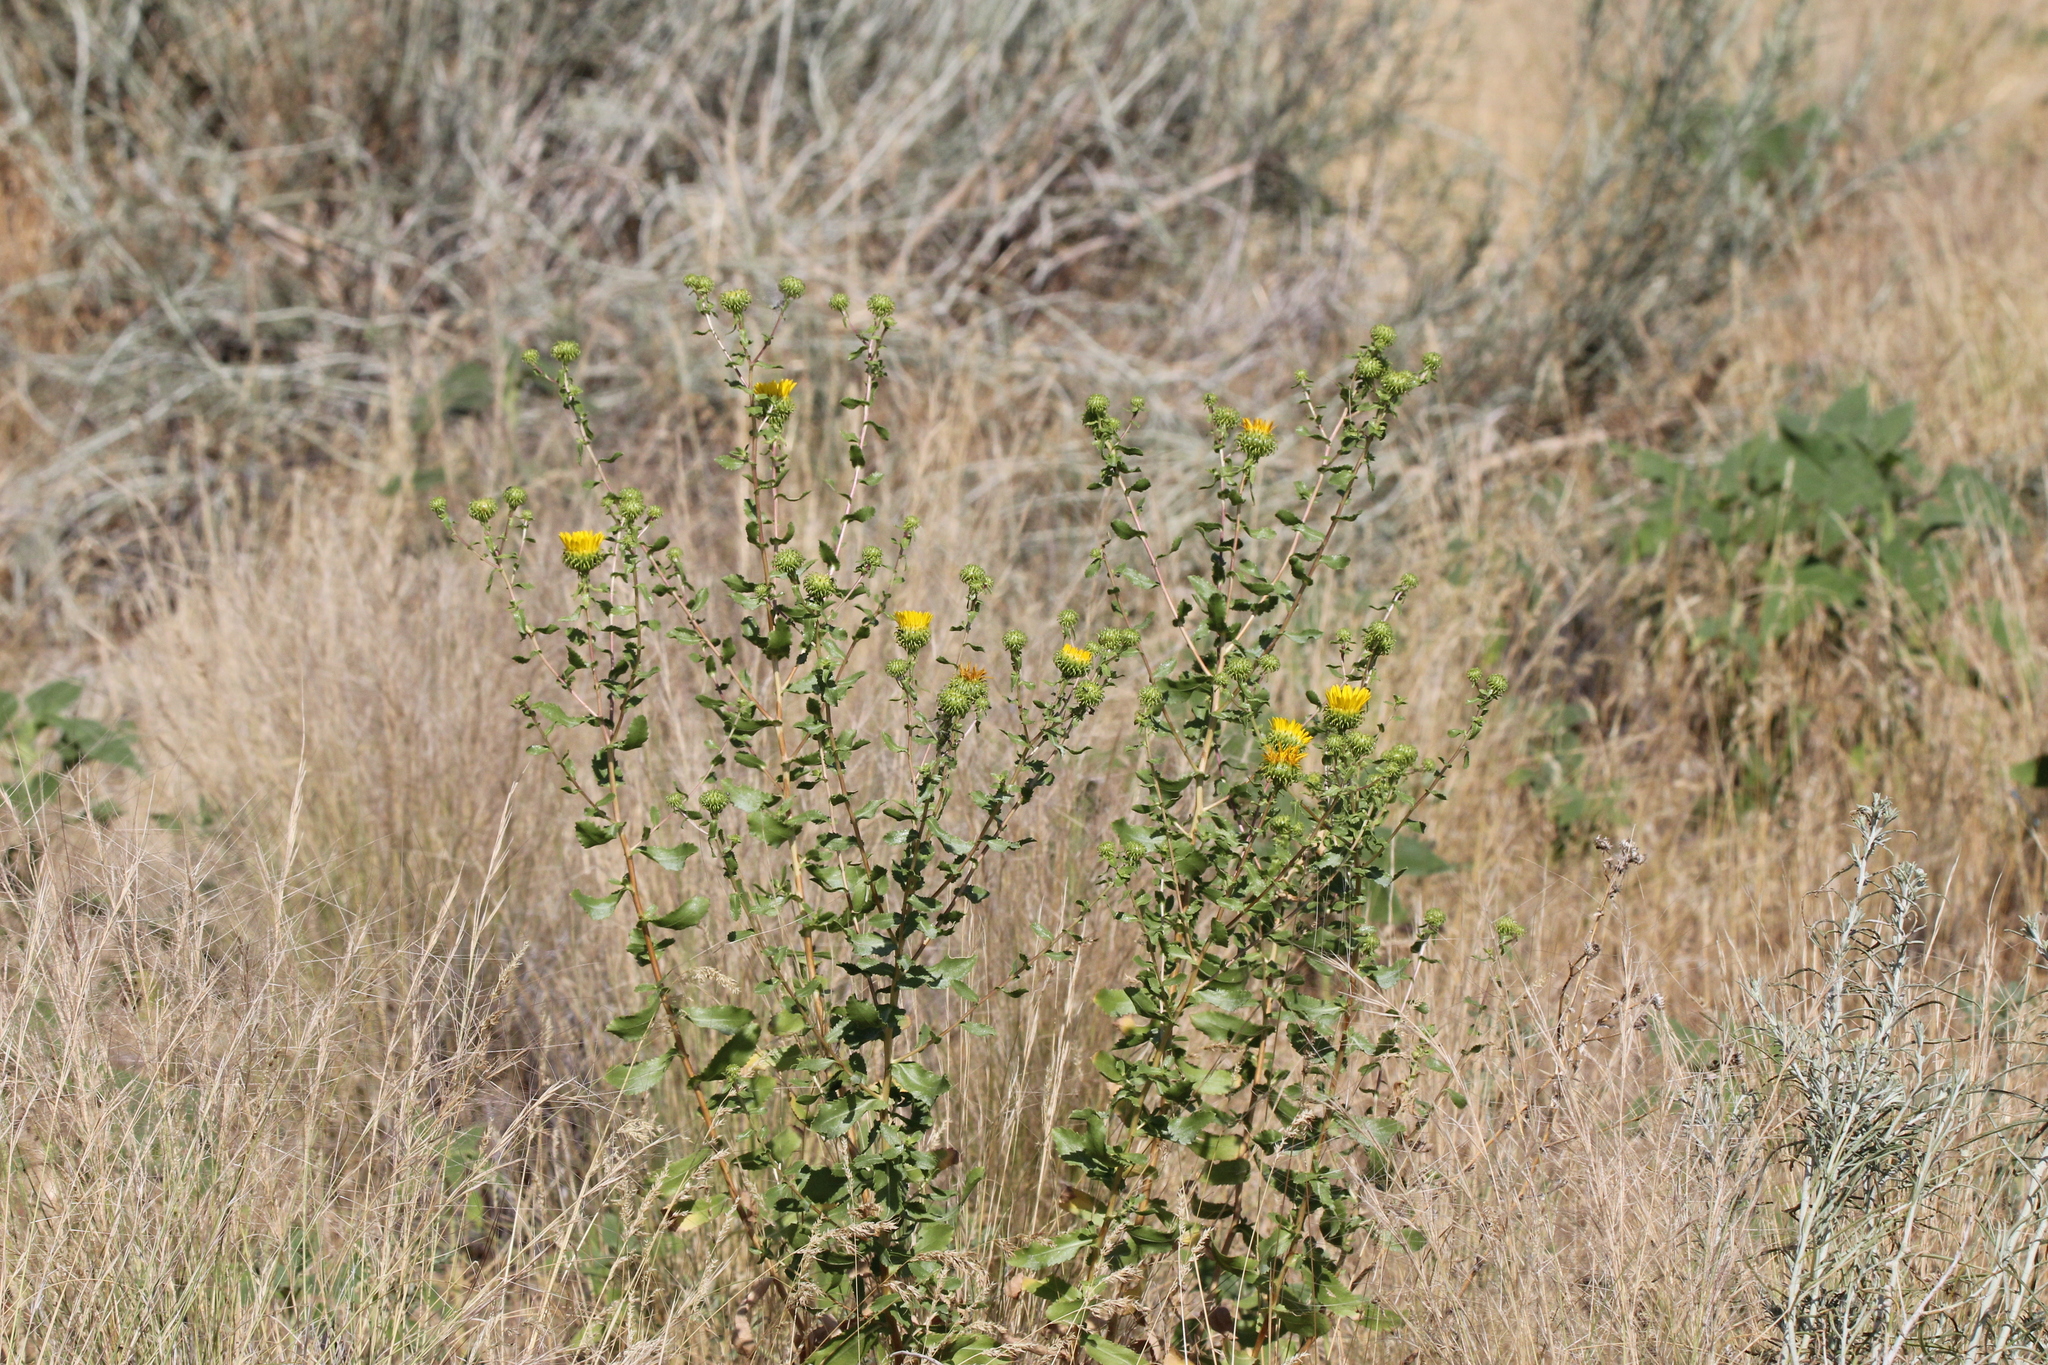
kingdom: Plantae
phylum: Tracheophyta
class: Magnoliopsida
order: Asterales
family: Asteraceae
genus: Grindelia
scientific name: Grindelia squarrosa
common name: Curly-cup gumweed
